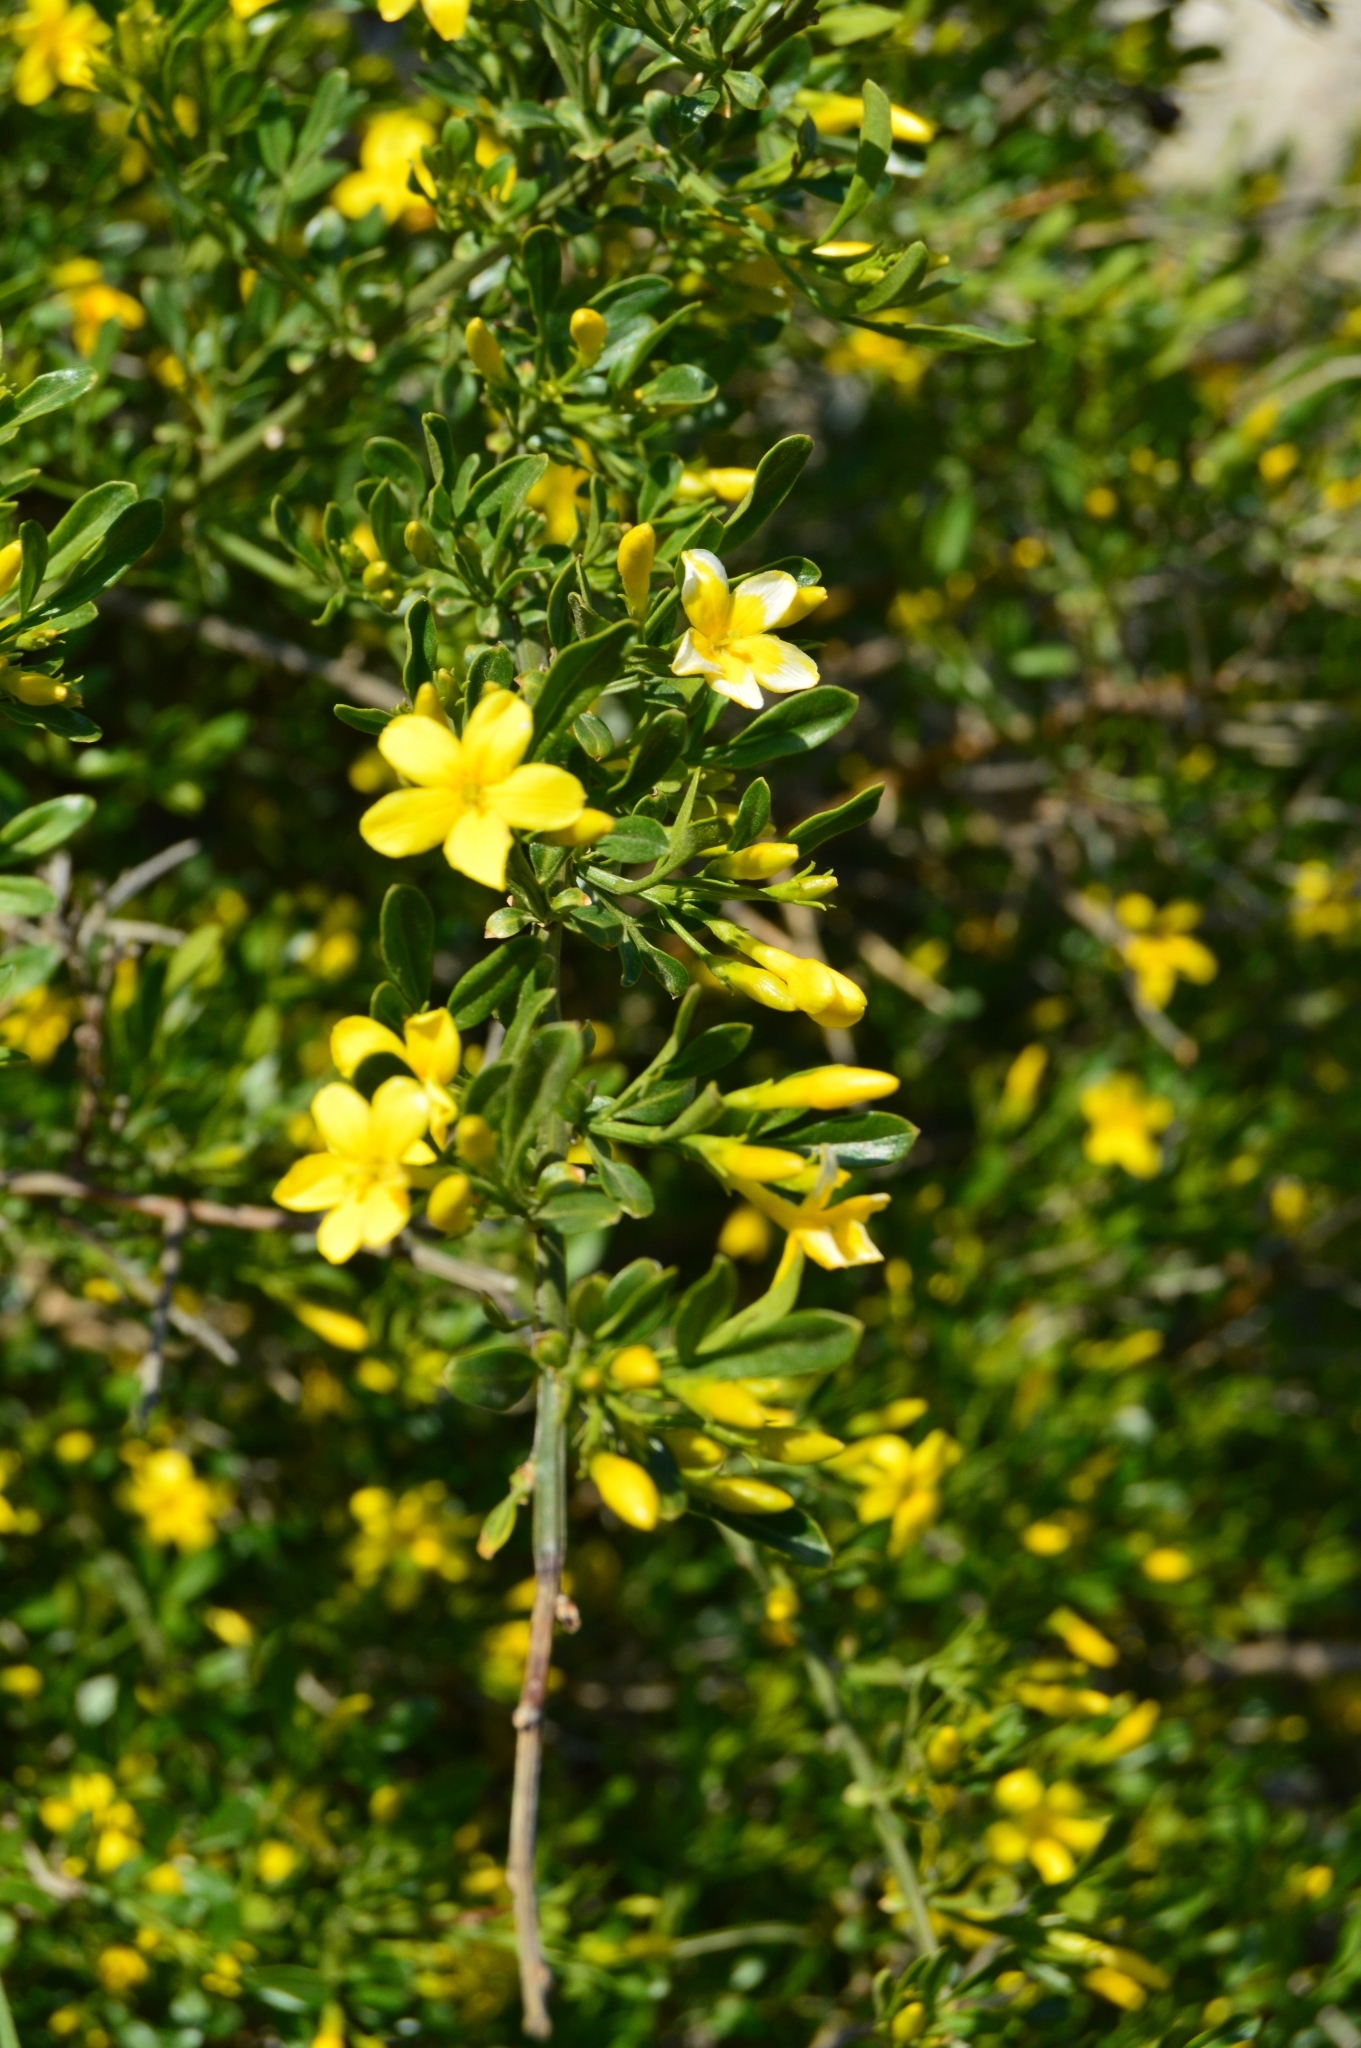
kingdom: Plantae
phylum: Tracheophyta
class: Magnoliopsida
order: Lamiales
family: Oleaceae
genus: Chrysojasminum
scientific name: Chrysojasminum fruticans
